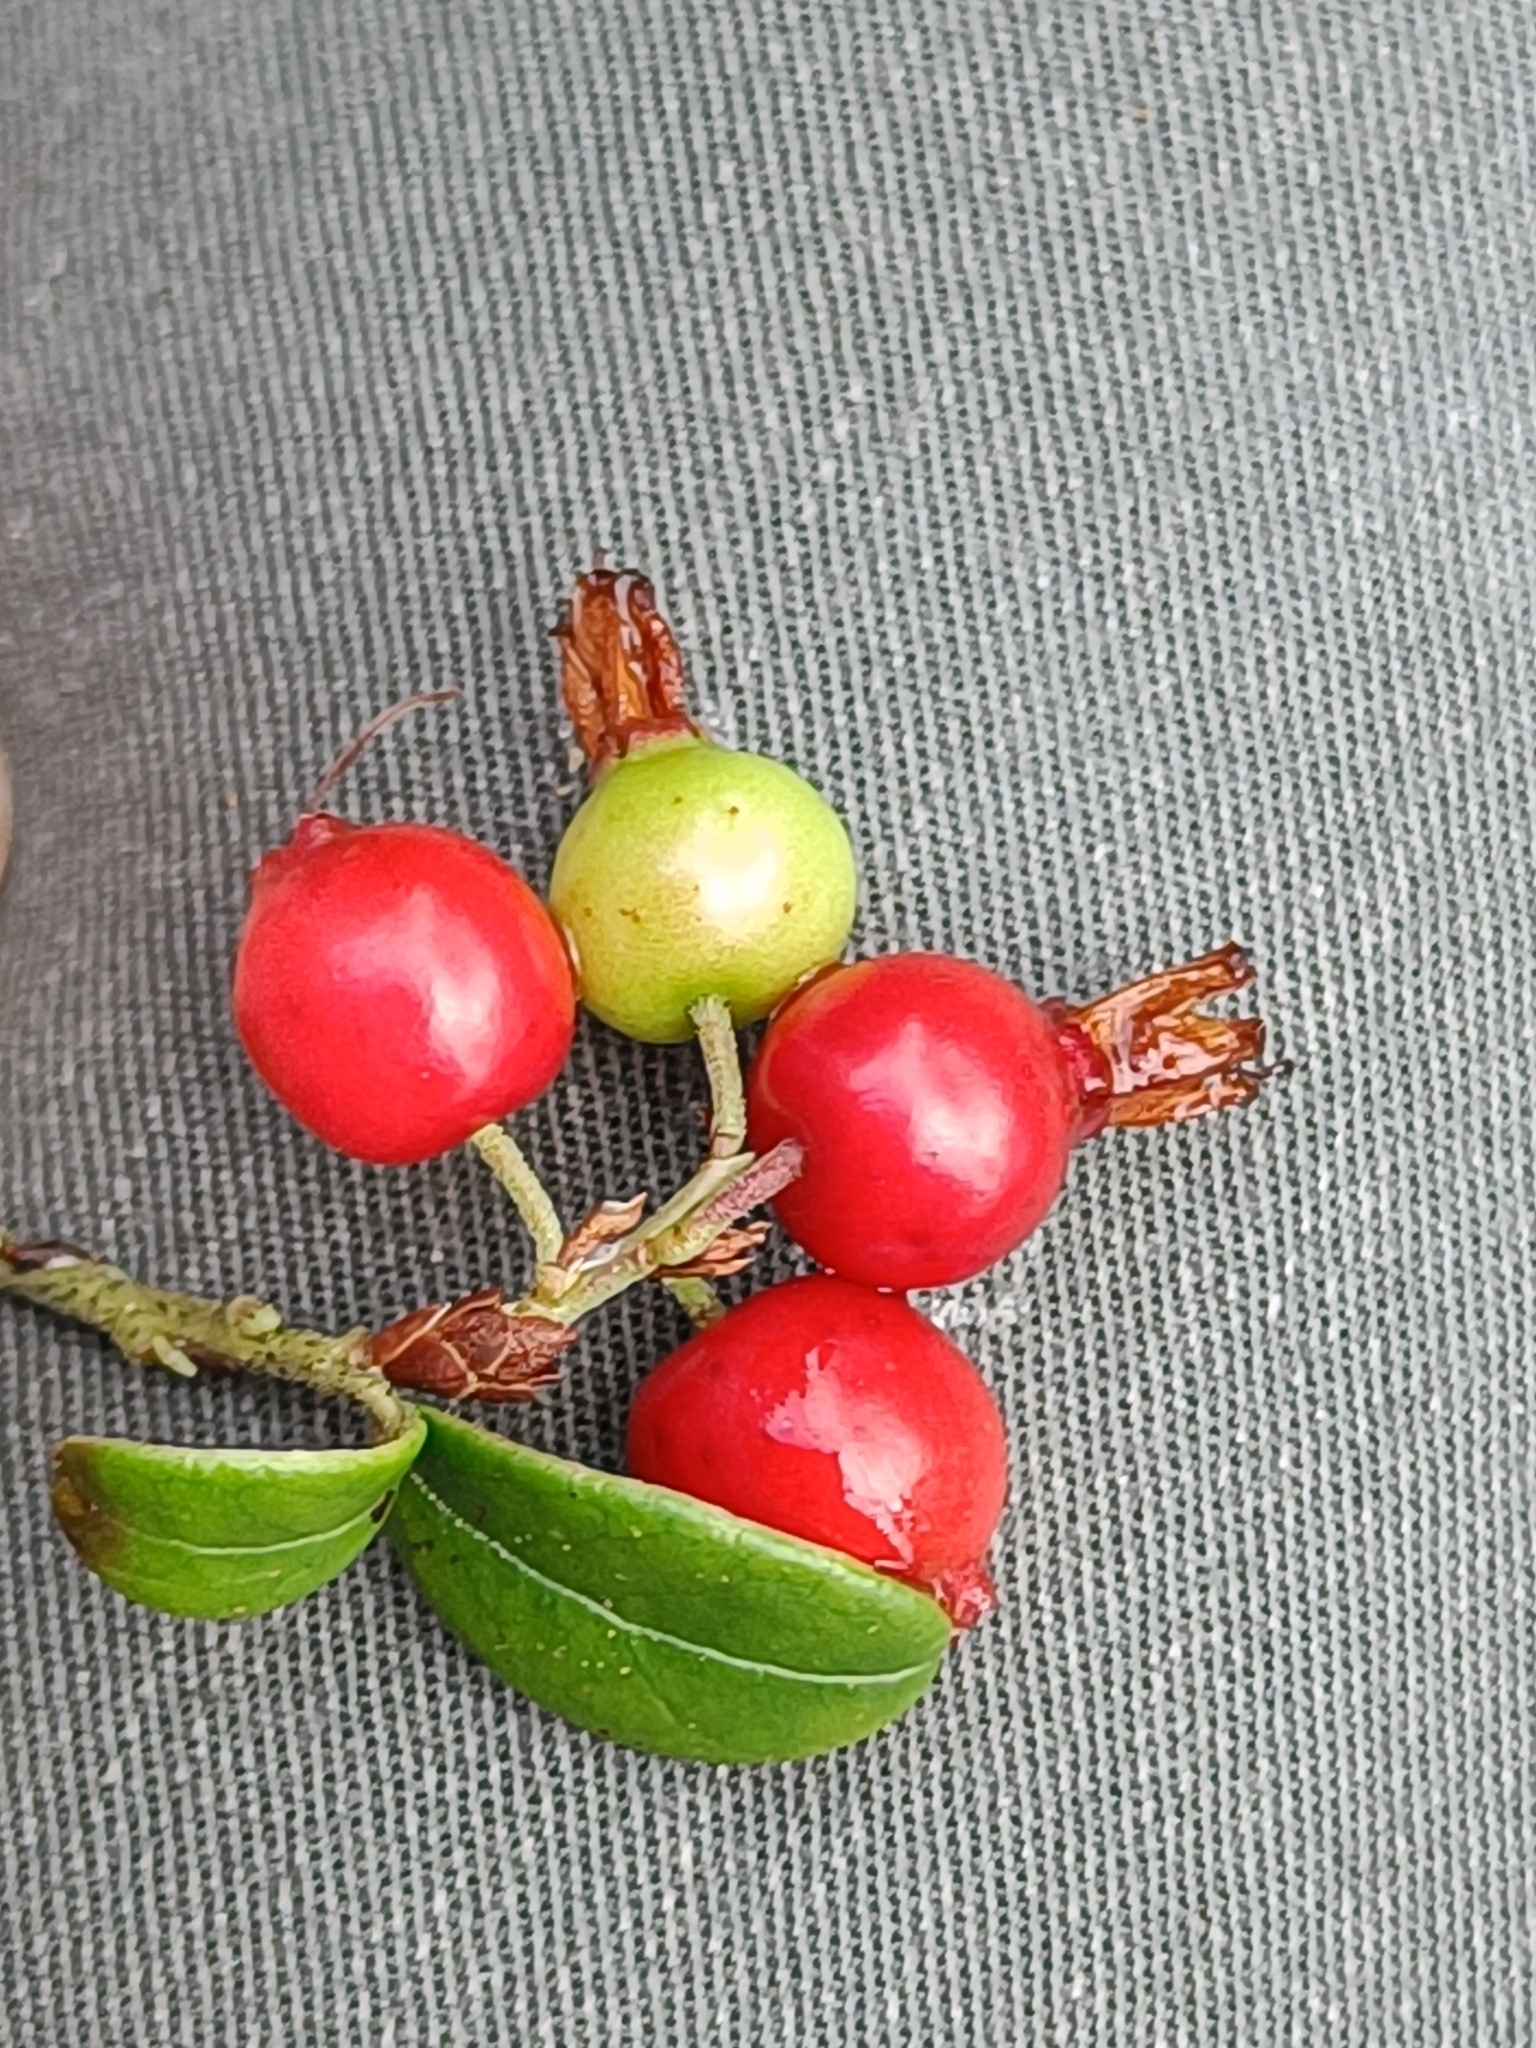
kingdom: Plantae
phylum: Tracheophyta
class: Magnoliopsida
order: Ericales
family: Ericaceae
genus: Vaccinium
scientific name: Vaccinium vitis-idaea
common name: Cowberry
